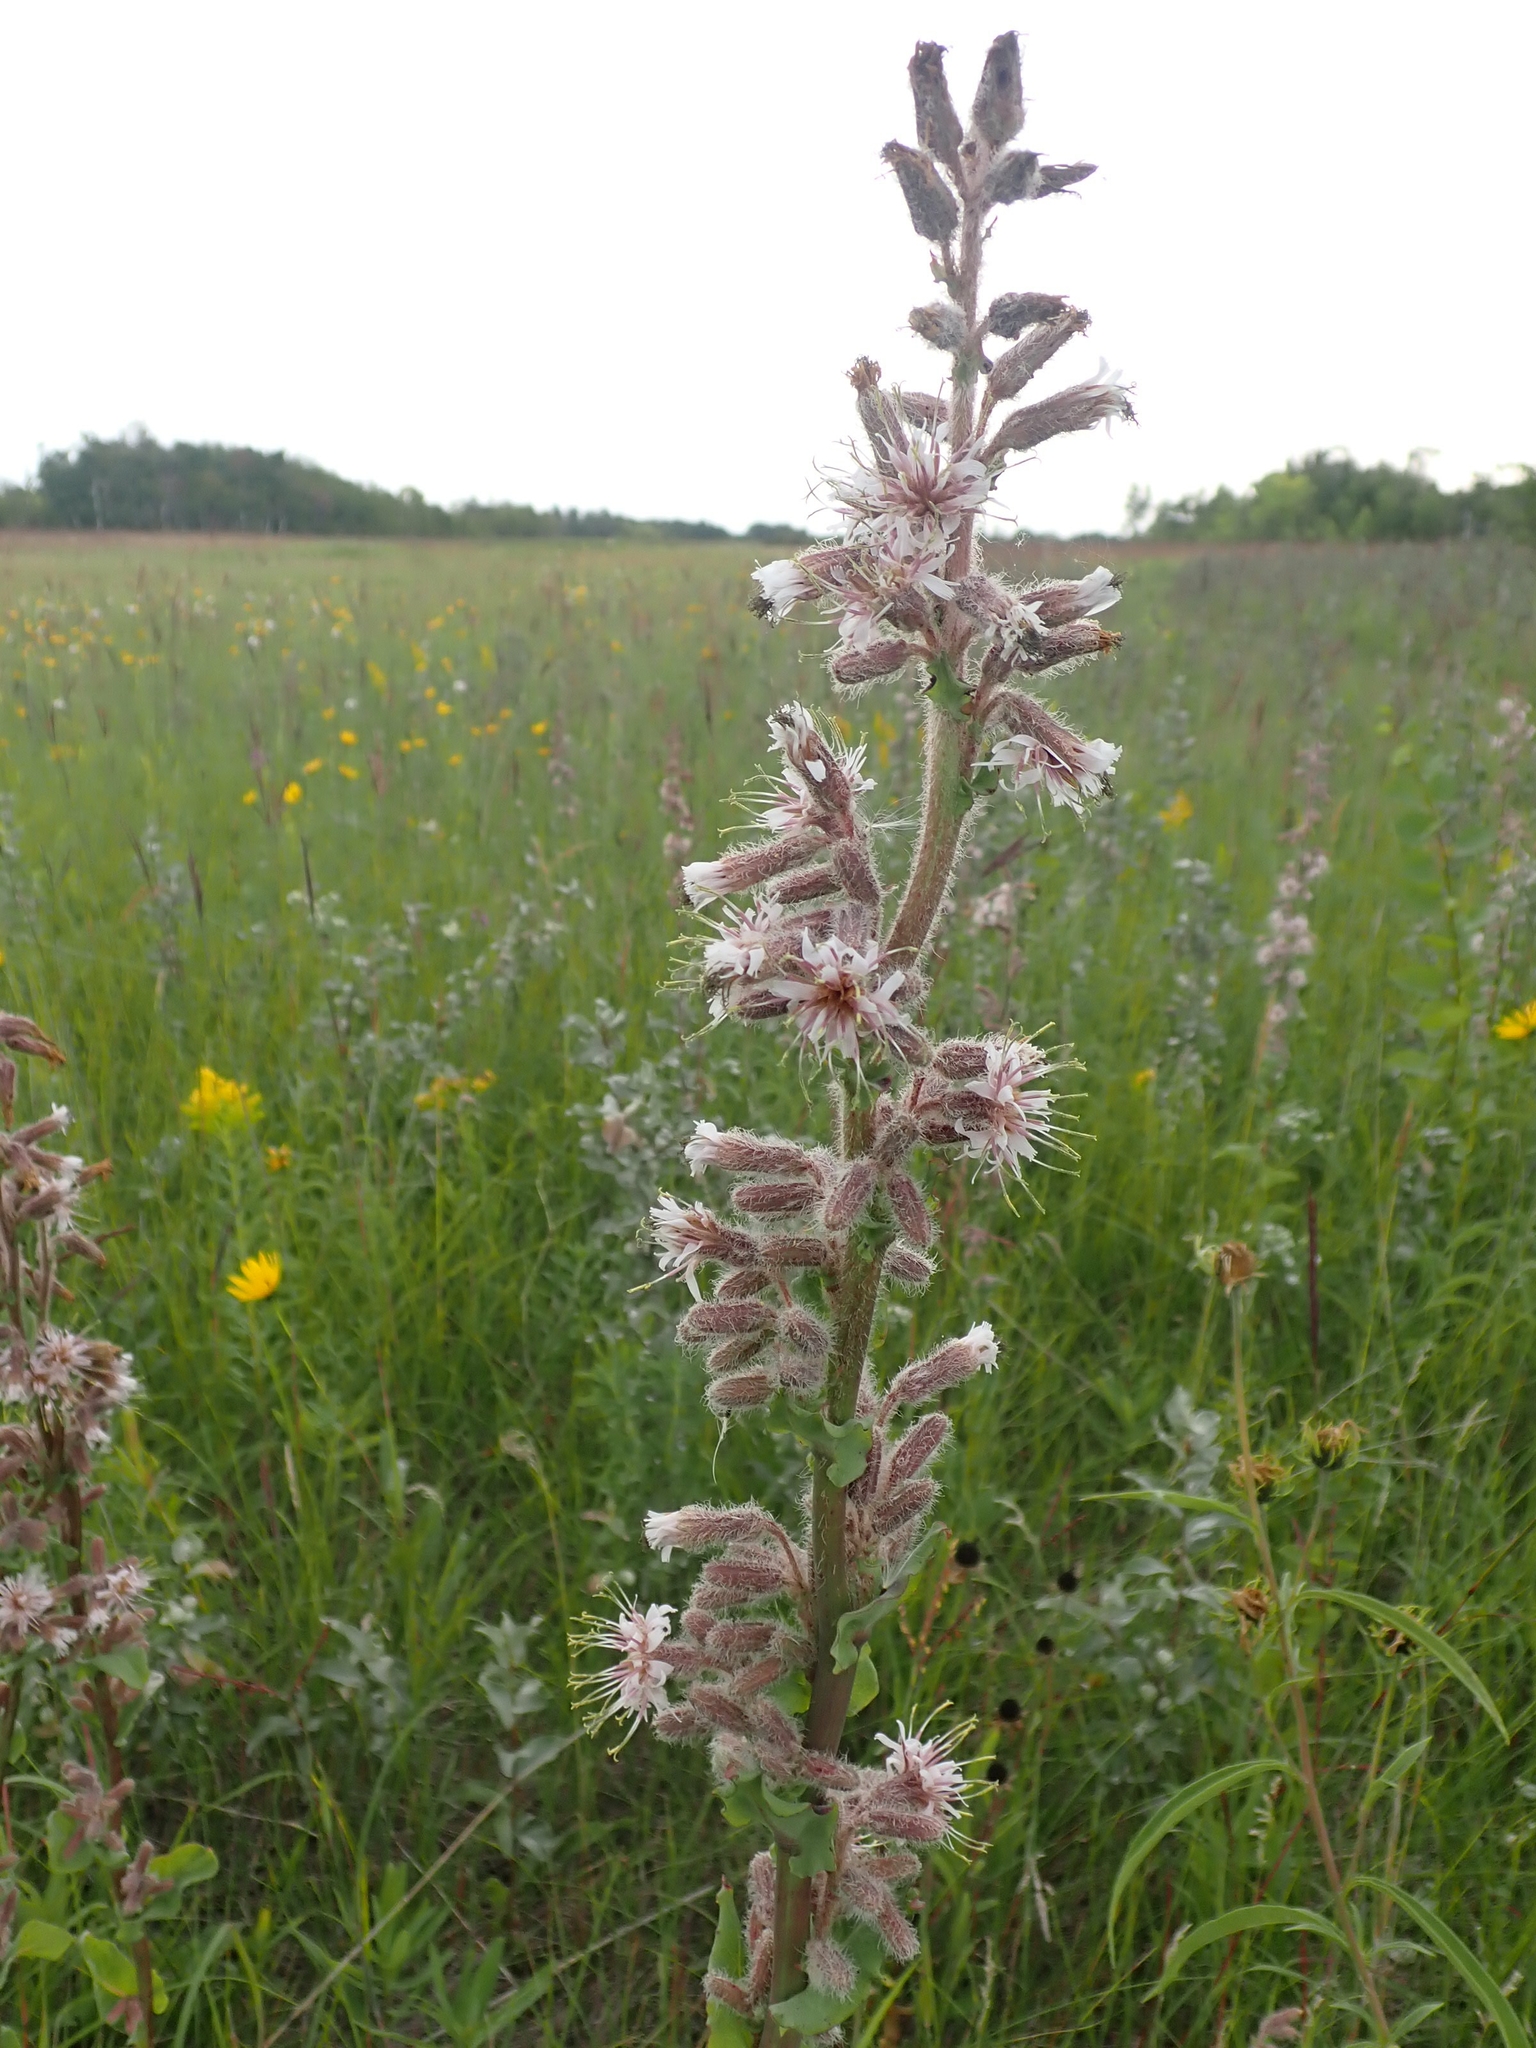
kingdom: Plantae
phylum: Tracheophyta
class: Magnoliopsida
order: Asterales
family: Asteraceae
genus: Nabalus
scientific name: Nabalus racemosus
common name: Glaucous white lettuce
